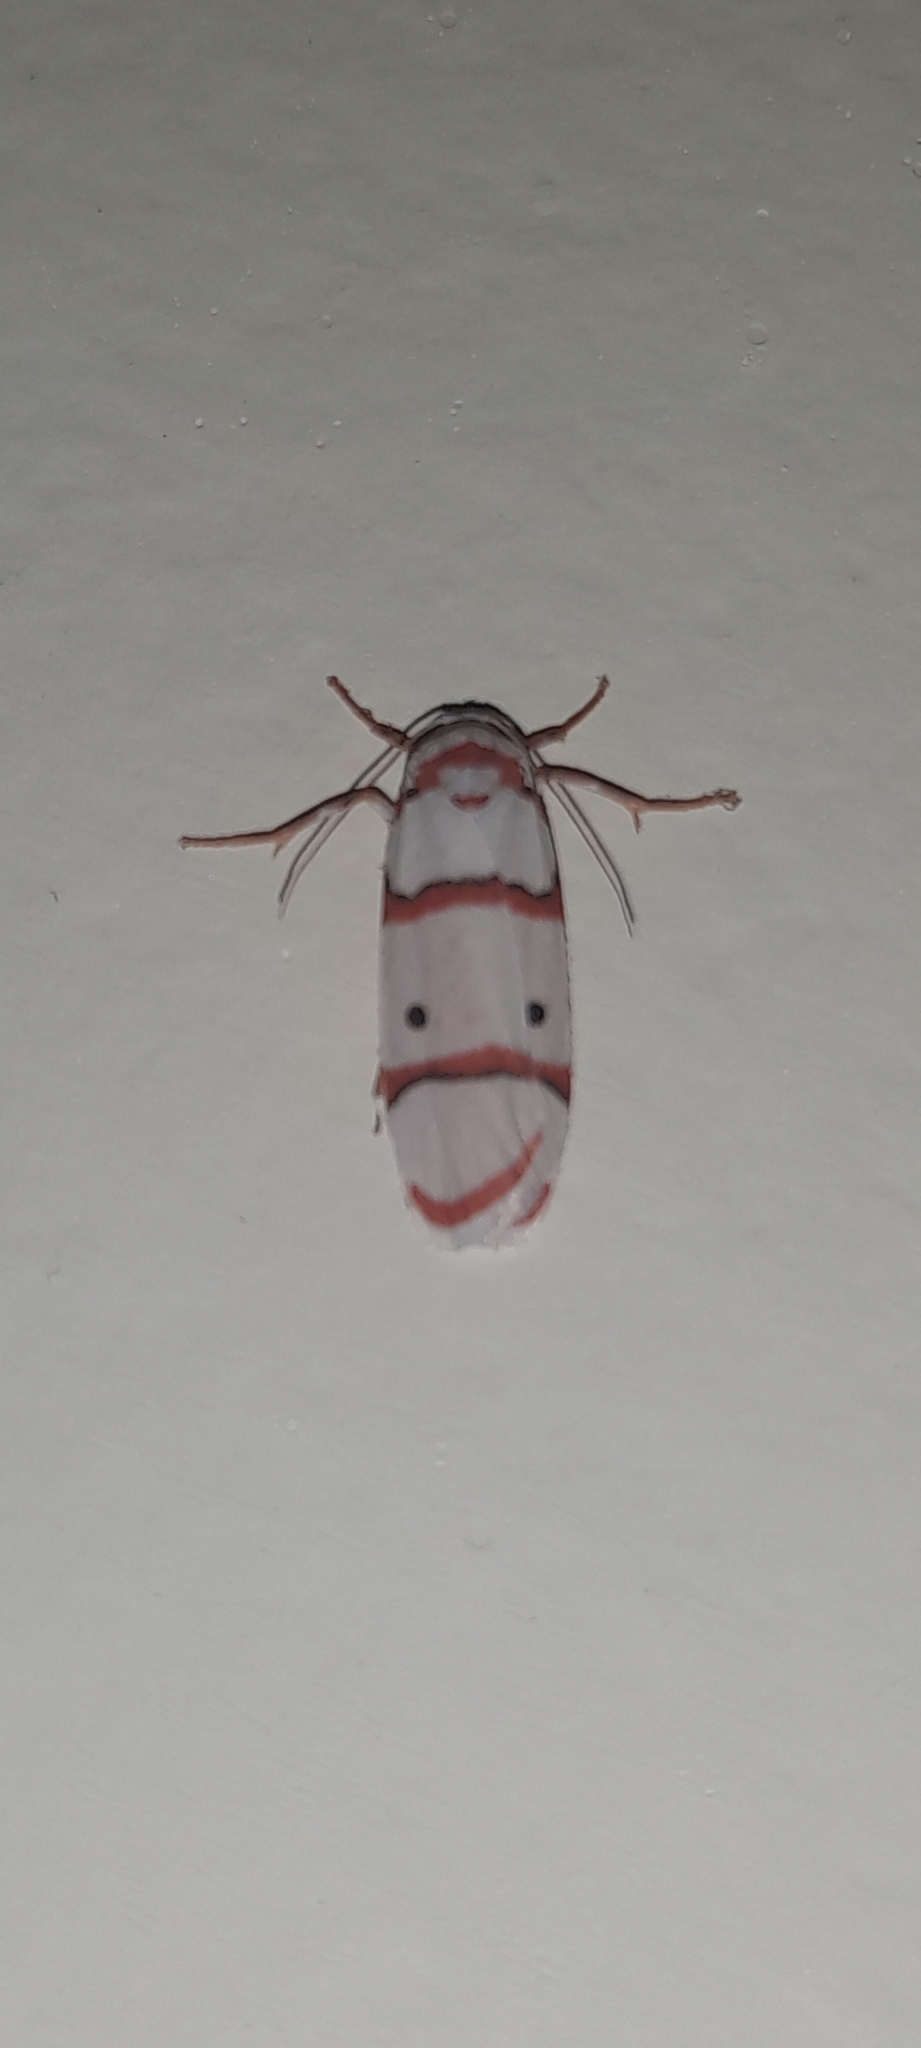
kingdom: Animalia
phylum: Arthropoda
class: Insecta
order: Lepidoptera
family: Erebidae
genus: Cyana
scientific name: Cyana peregrina
